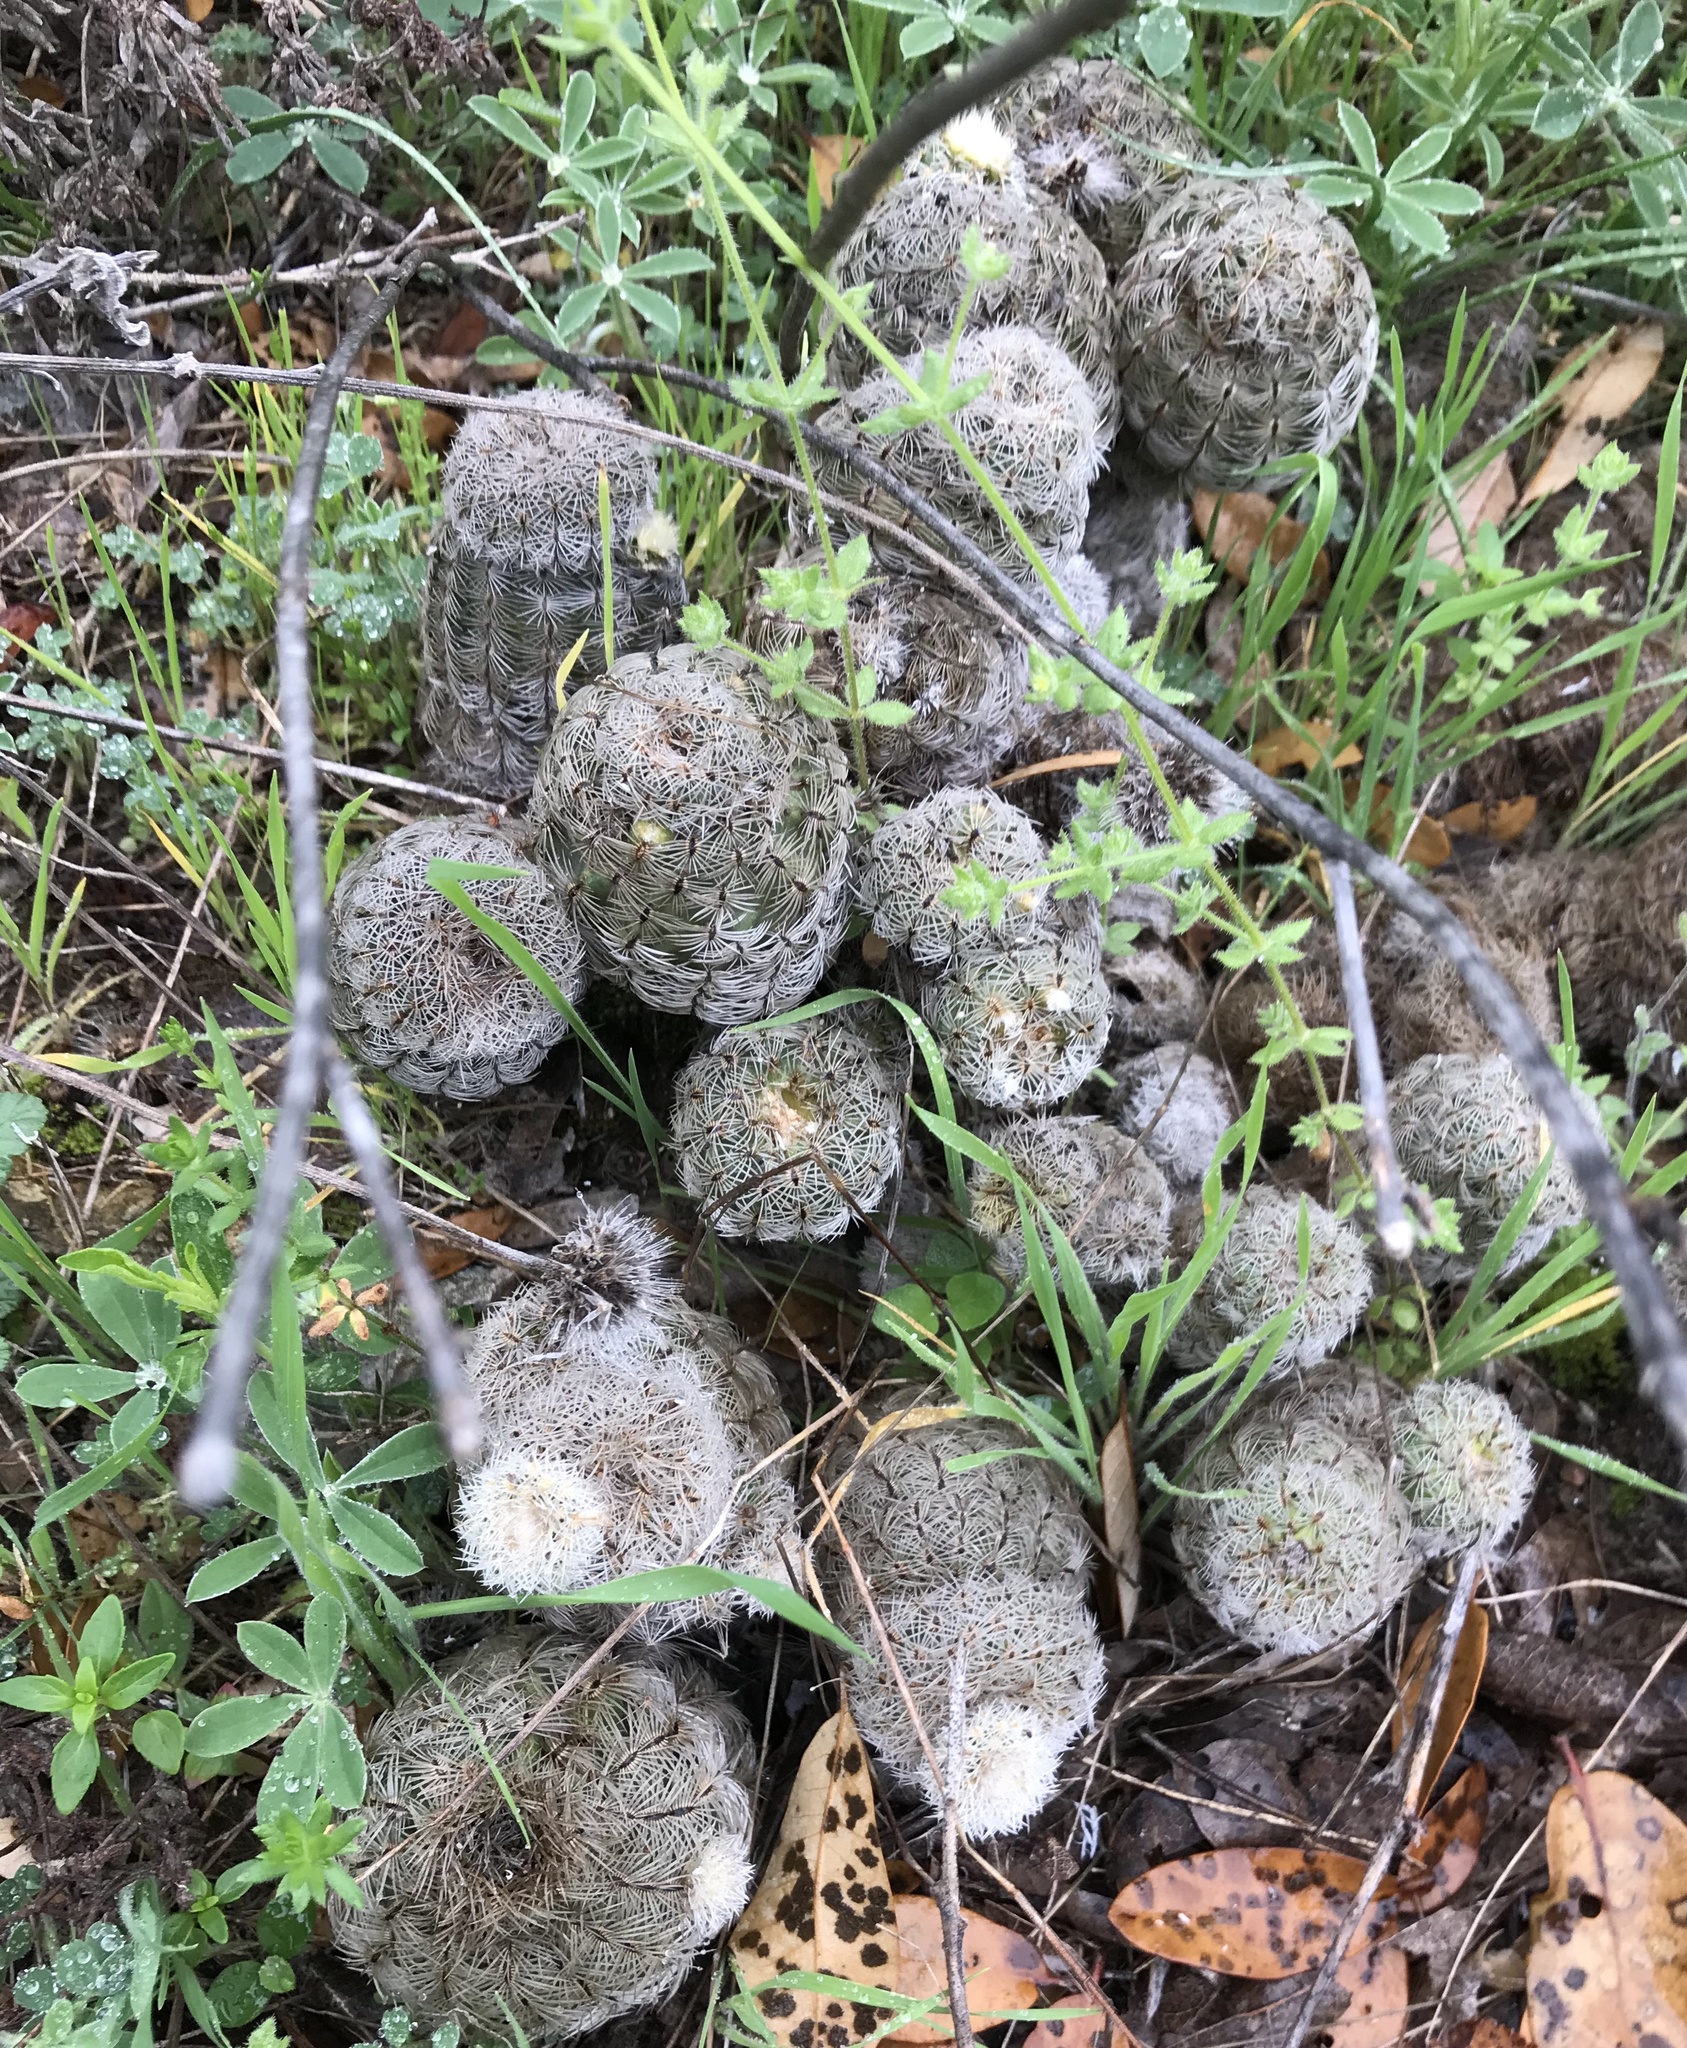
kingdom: Plantae
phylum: Tracheophyta
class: Magnoliopsida
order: Caryophyllales
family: Cactaceae
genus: Echinocereus
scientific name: Echinocereus reichenbachii
